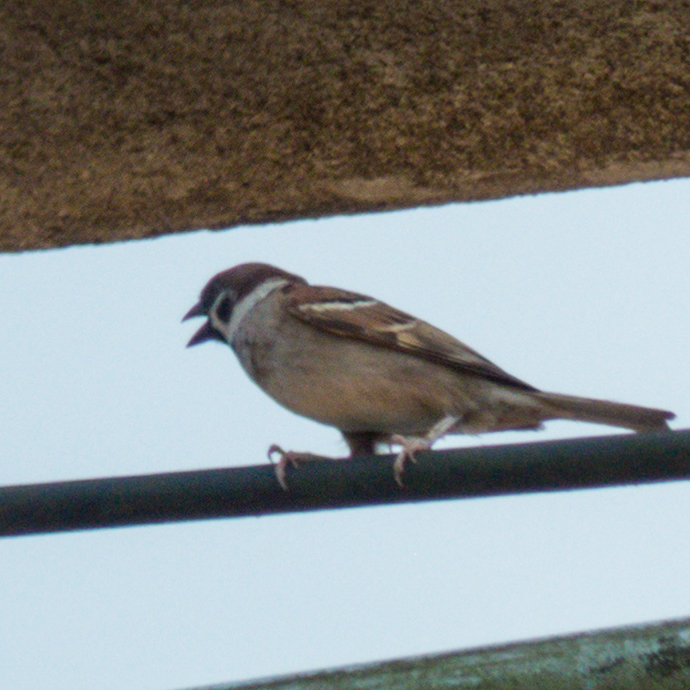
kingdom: Animalia
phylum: Chordata
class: Aves
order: Passeriformes
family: Passeridae
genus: Passer
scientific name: Passer montanus
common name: Eurasian tree sparrow
